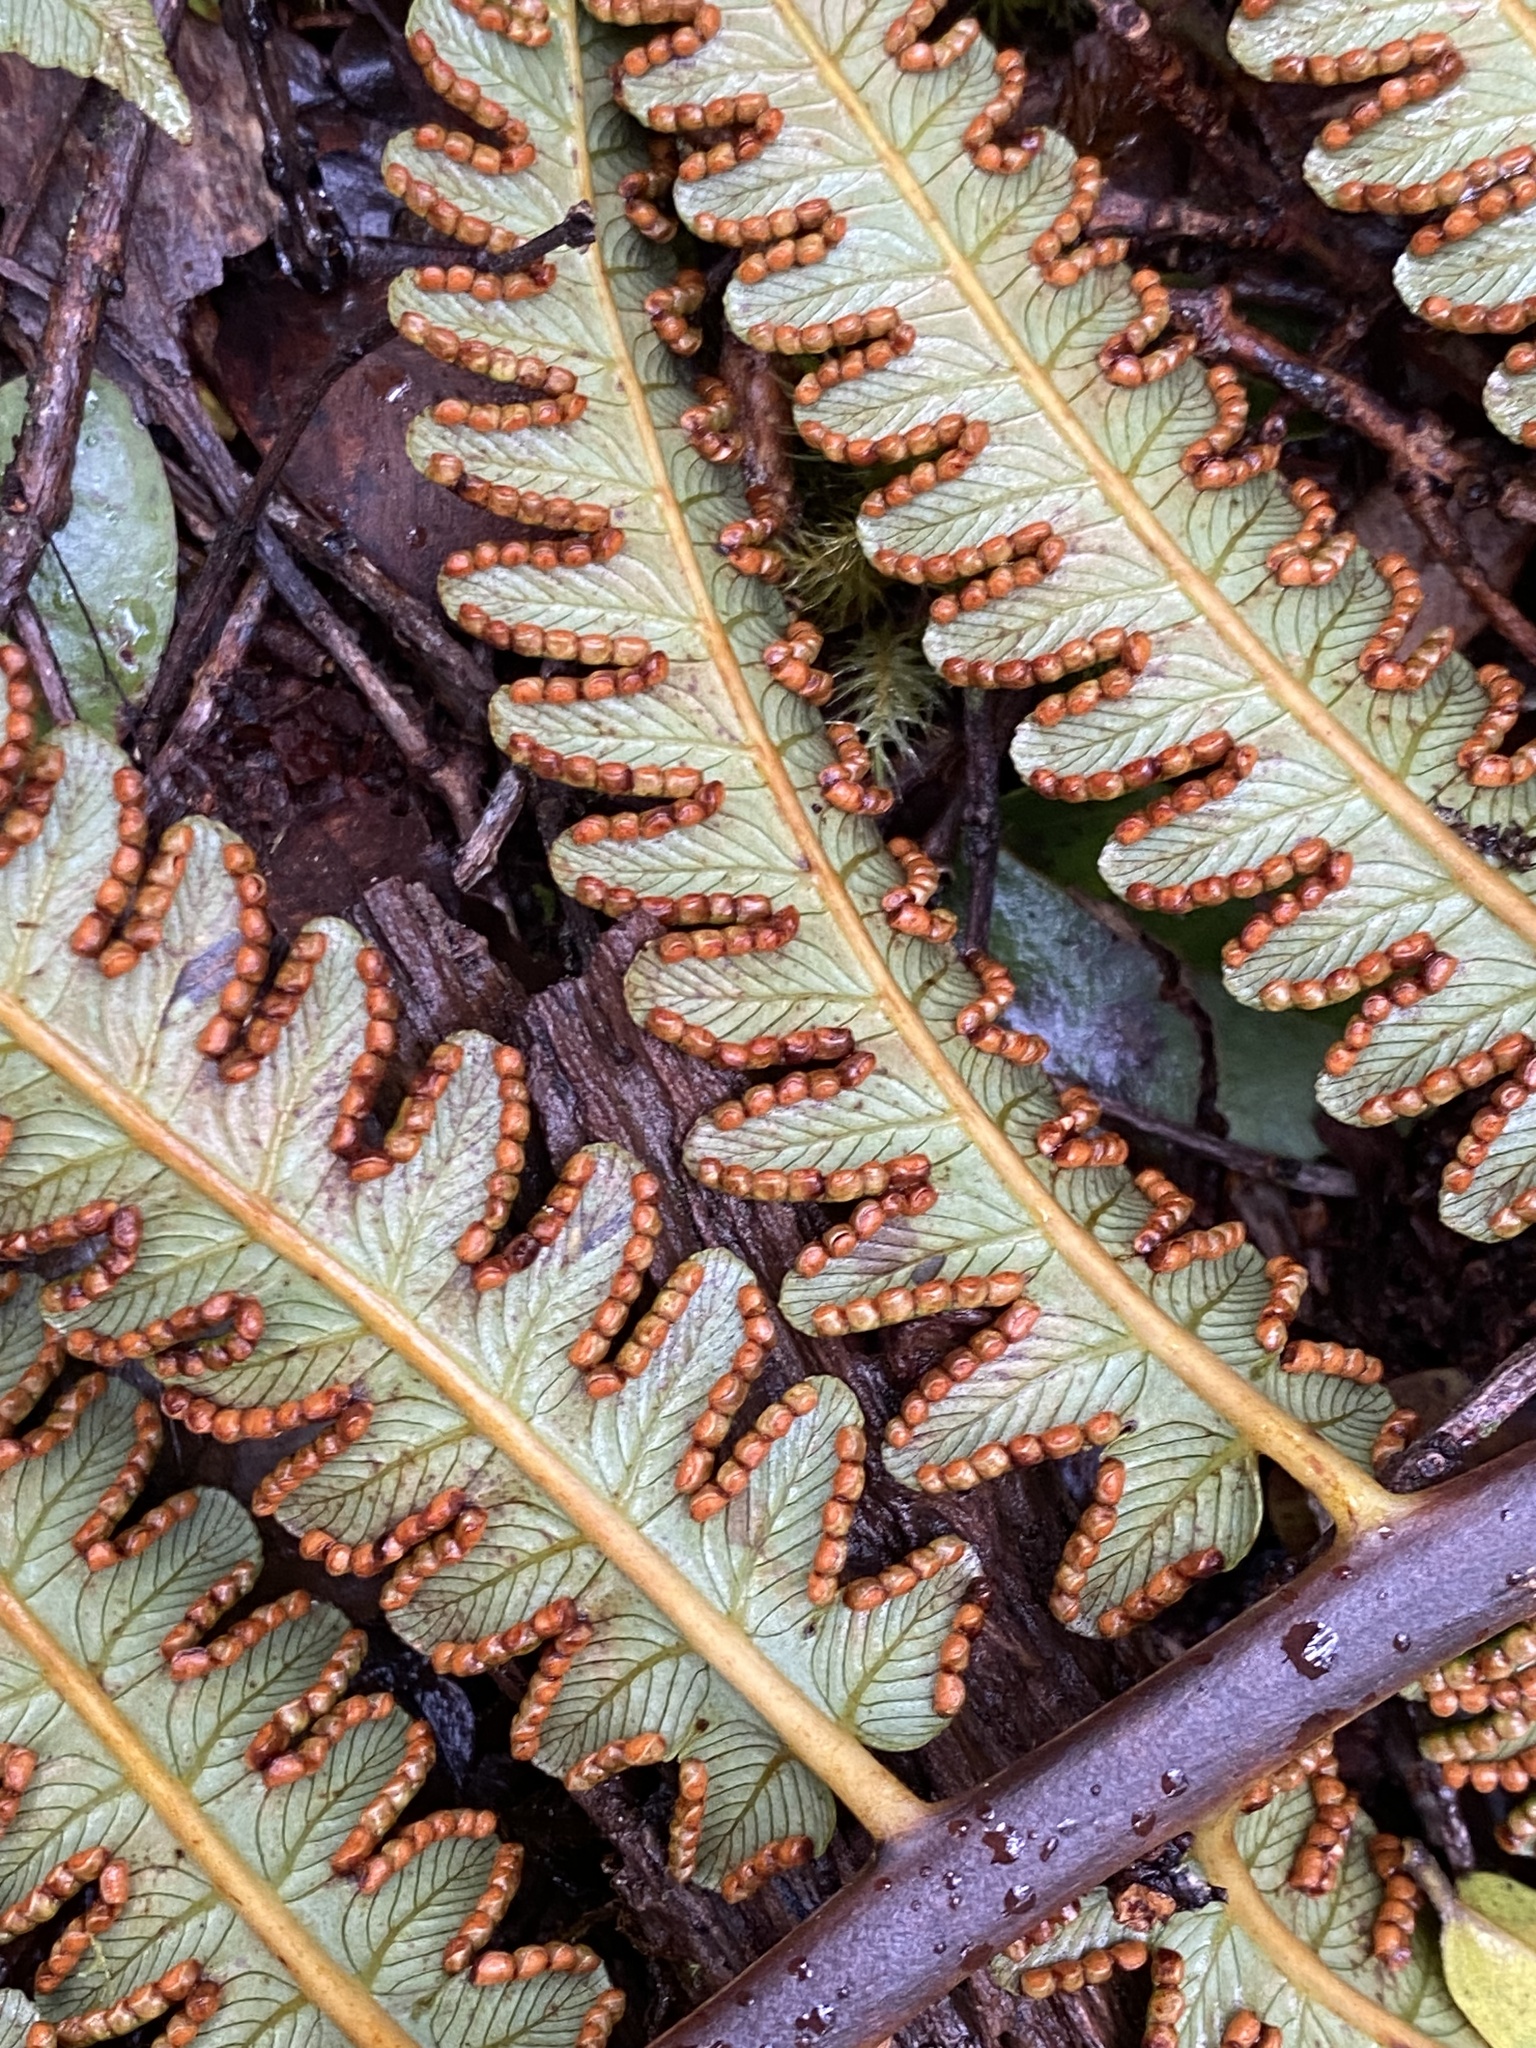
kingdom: Plantae
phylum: Tracheophyta
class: Polypodiopsida
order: Cyatheales
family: Cibotiaceae
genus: Cibotium
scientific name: Cibotium glaucum
